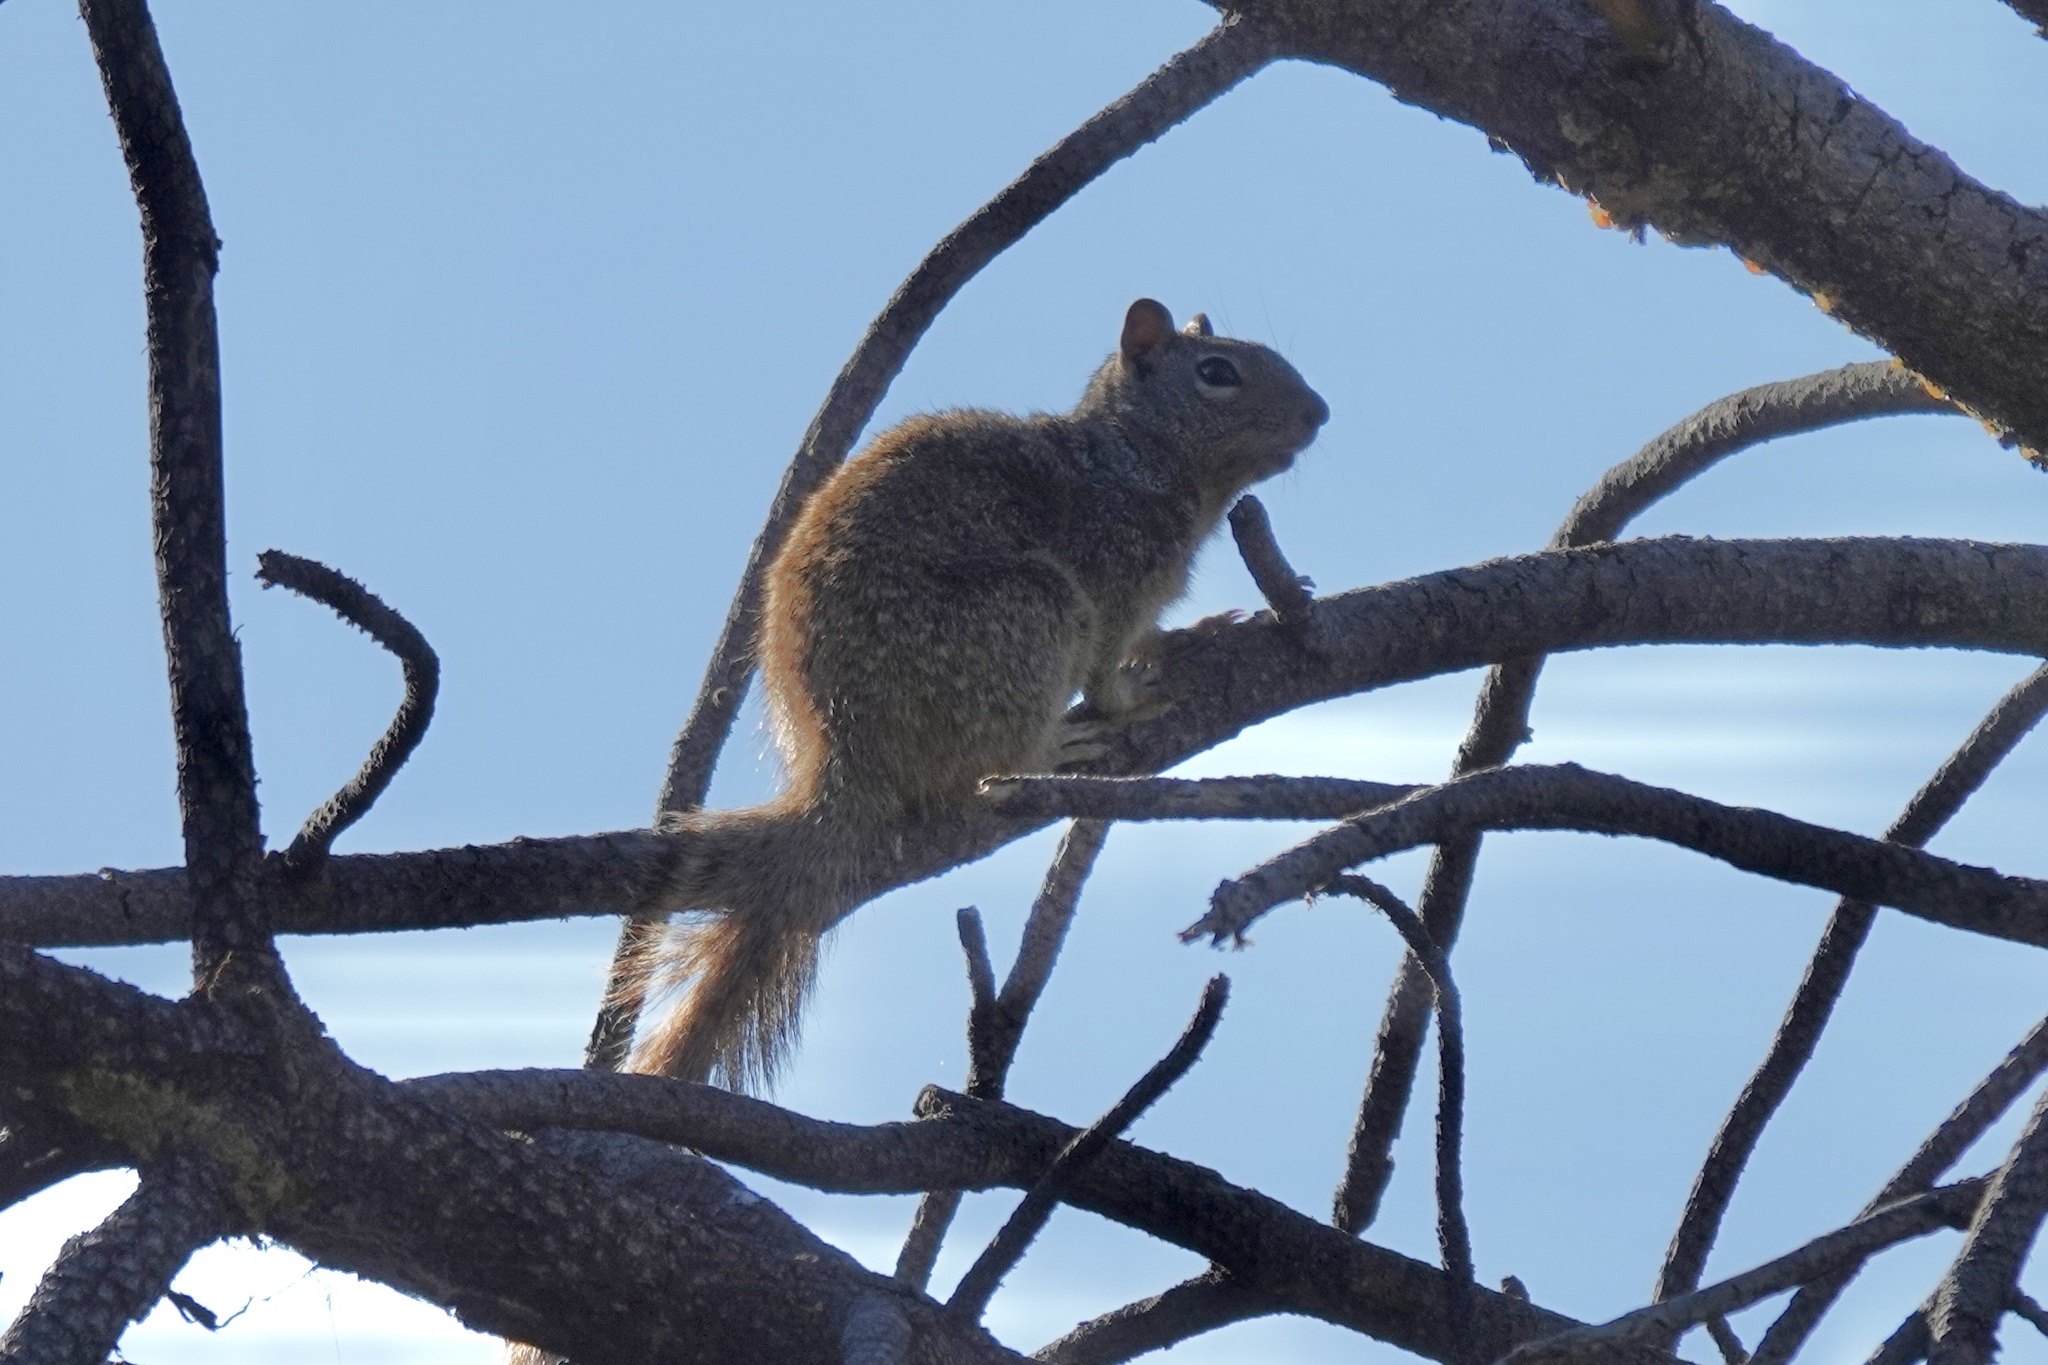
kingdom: Animalia
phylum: Chordata
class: Mammalia
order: Rodentia
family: Sciuridae
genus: Otospermophilus
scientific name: Otospermophilus variegatus
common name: Rock squirrel
